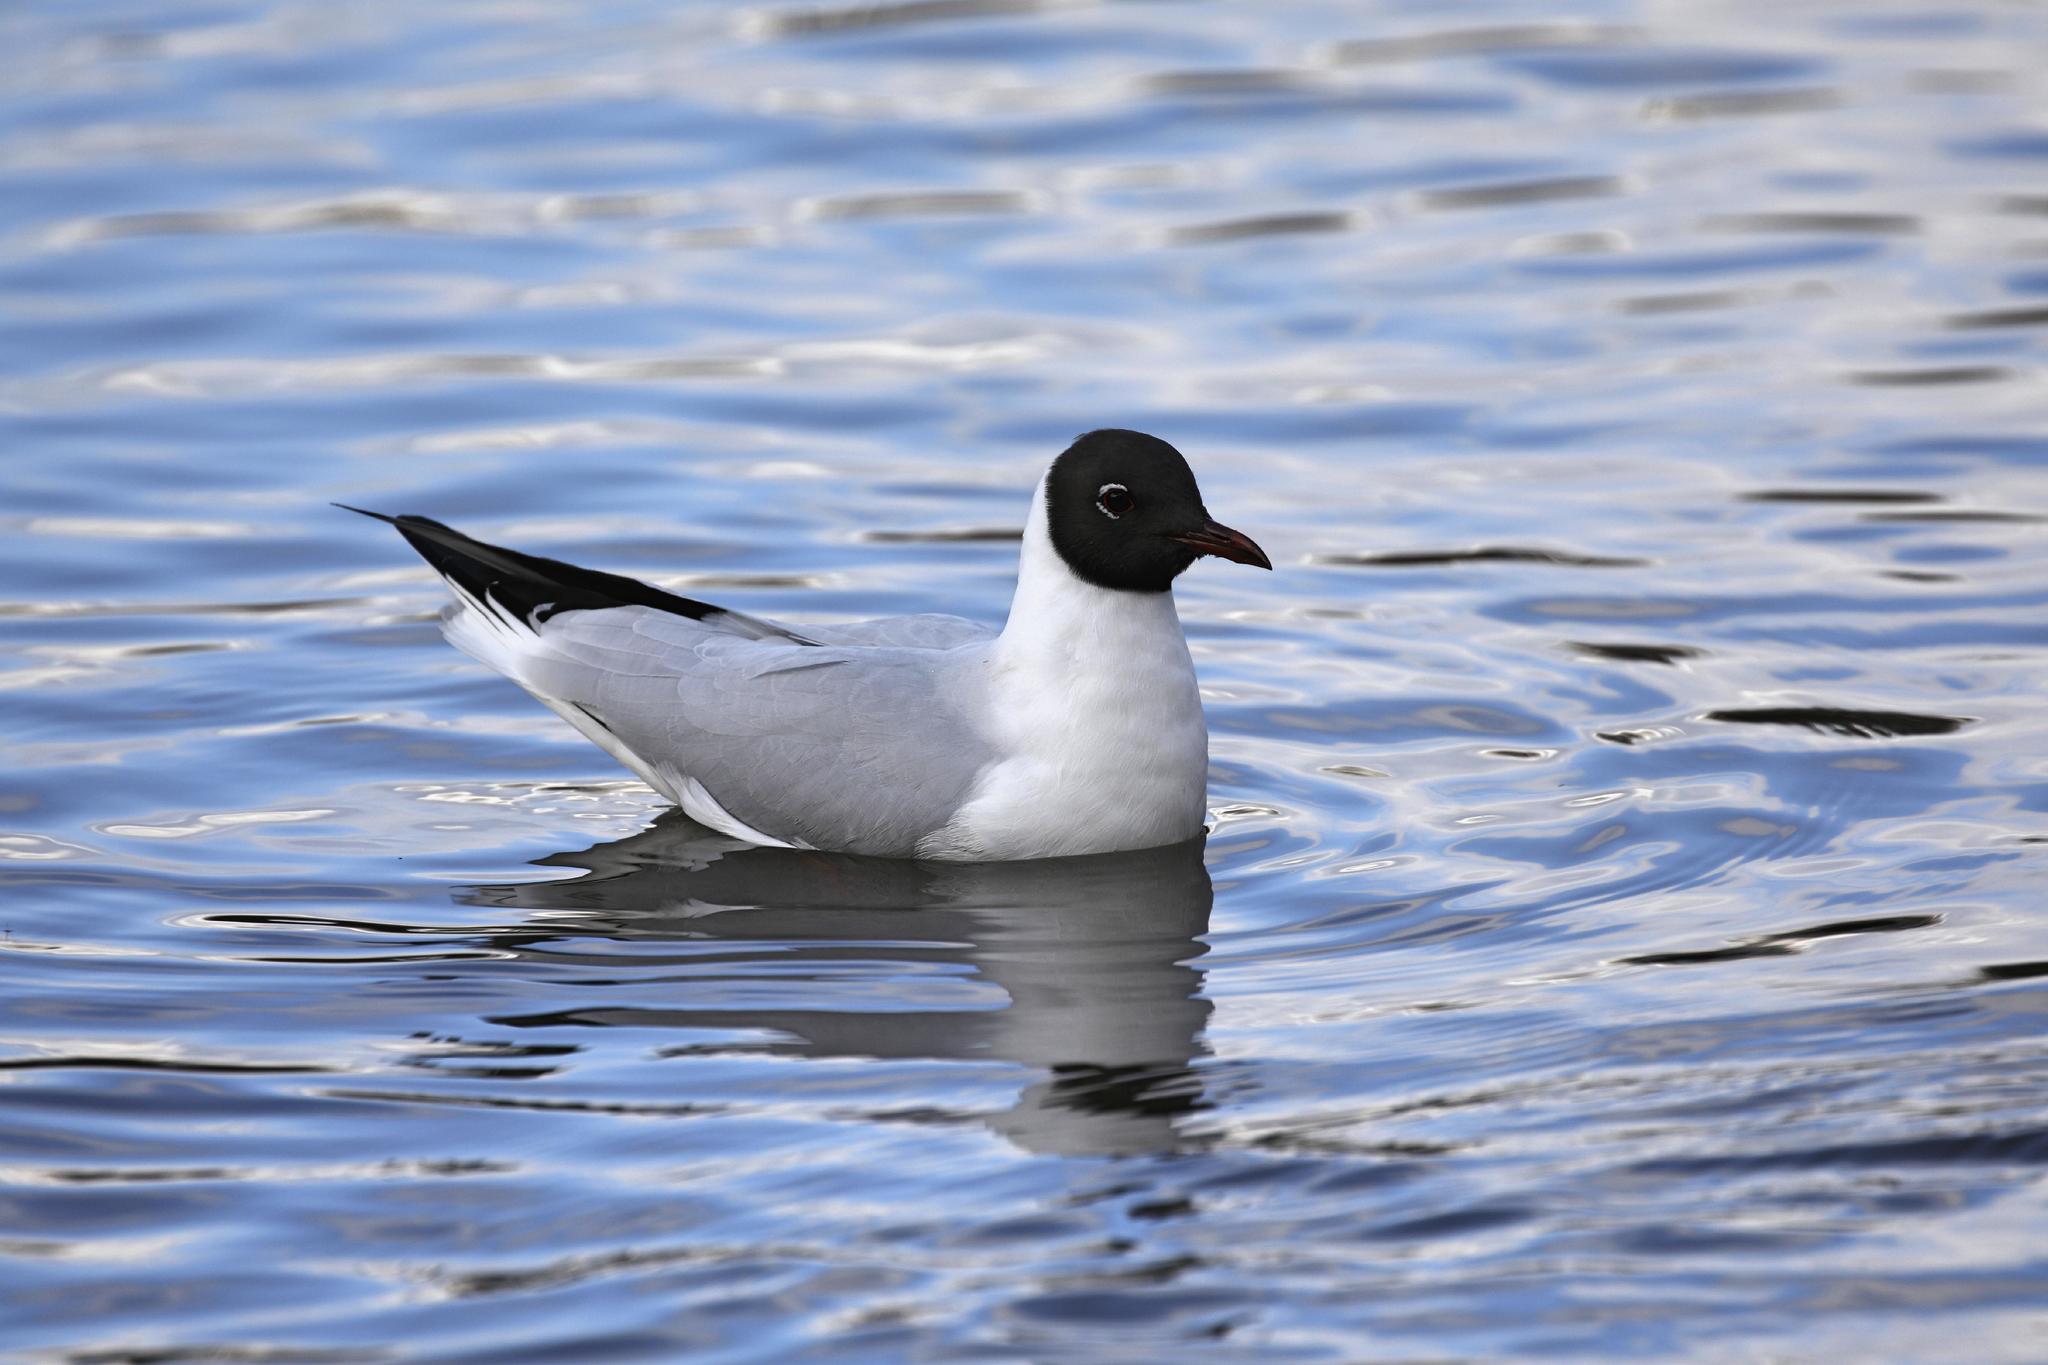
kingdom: Animalia
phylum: Chordata
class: Aves
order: Charadriiformes
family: Laridae
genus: Chroicocephalus
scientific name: Chroicocephalus ridibundus
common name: Black-headed gull
